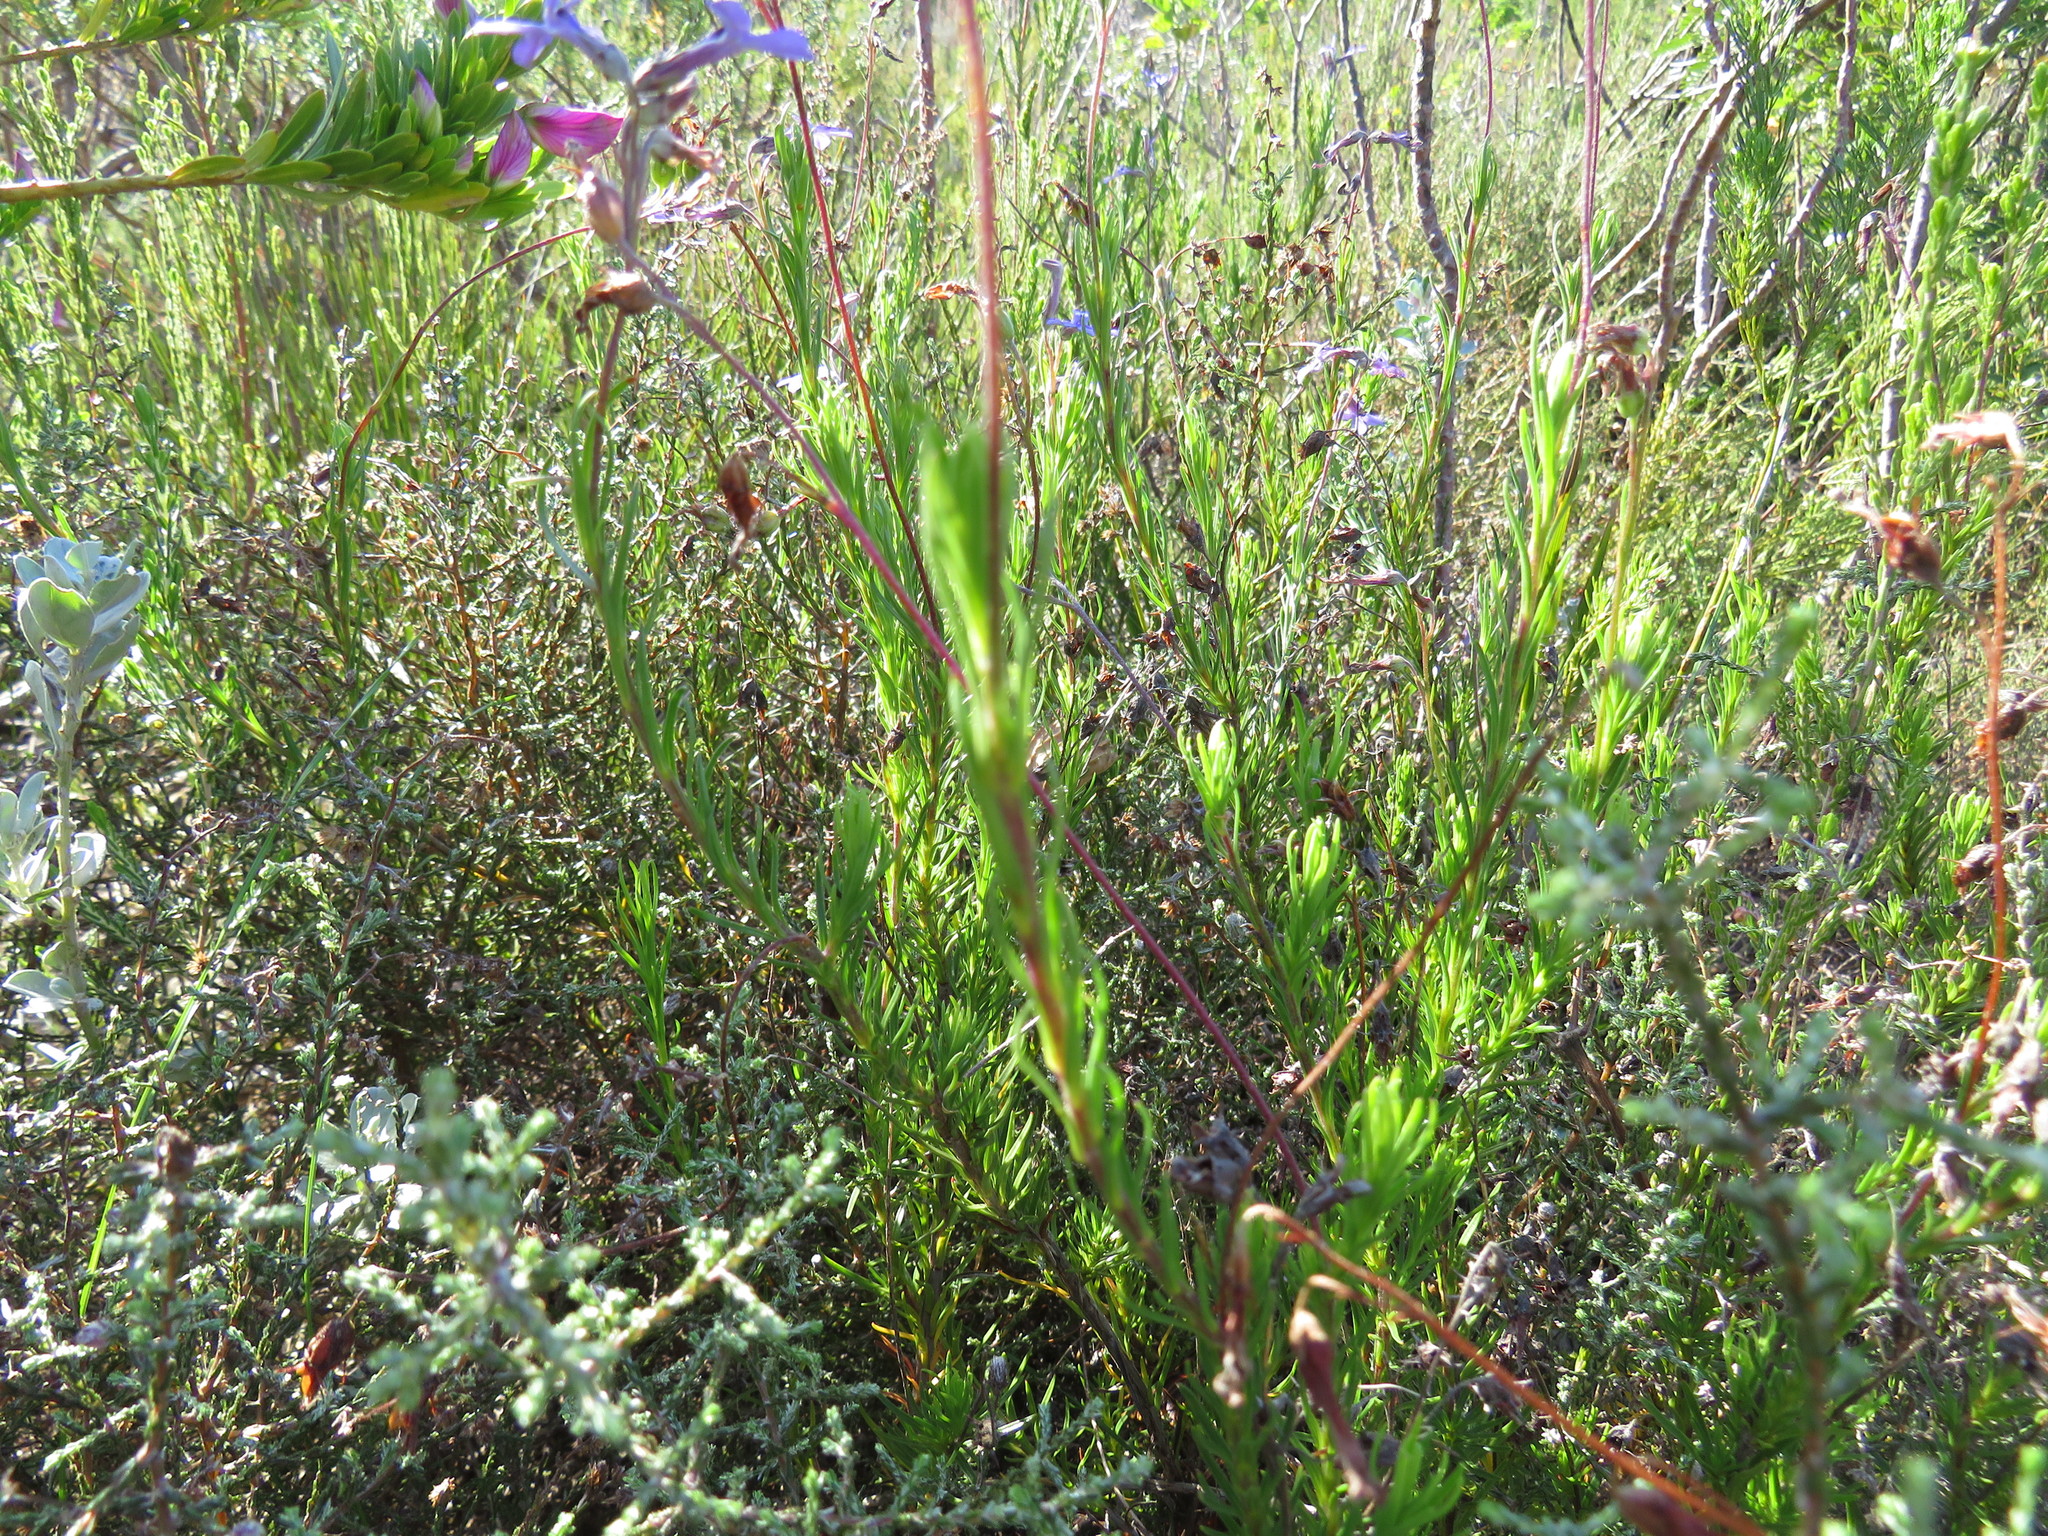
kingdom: Plantae
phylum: Tracheophyta
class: Magnoliopsida
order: Asterales
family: Campanulaceae
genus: Lobelia
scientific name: Lobelia pinifolia
